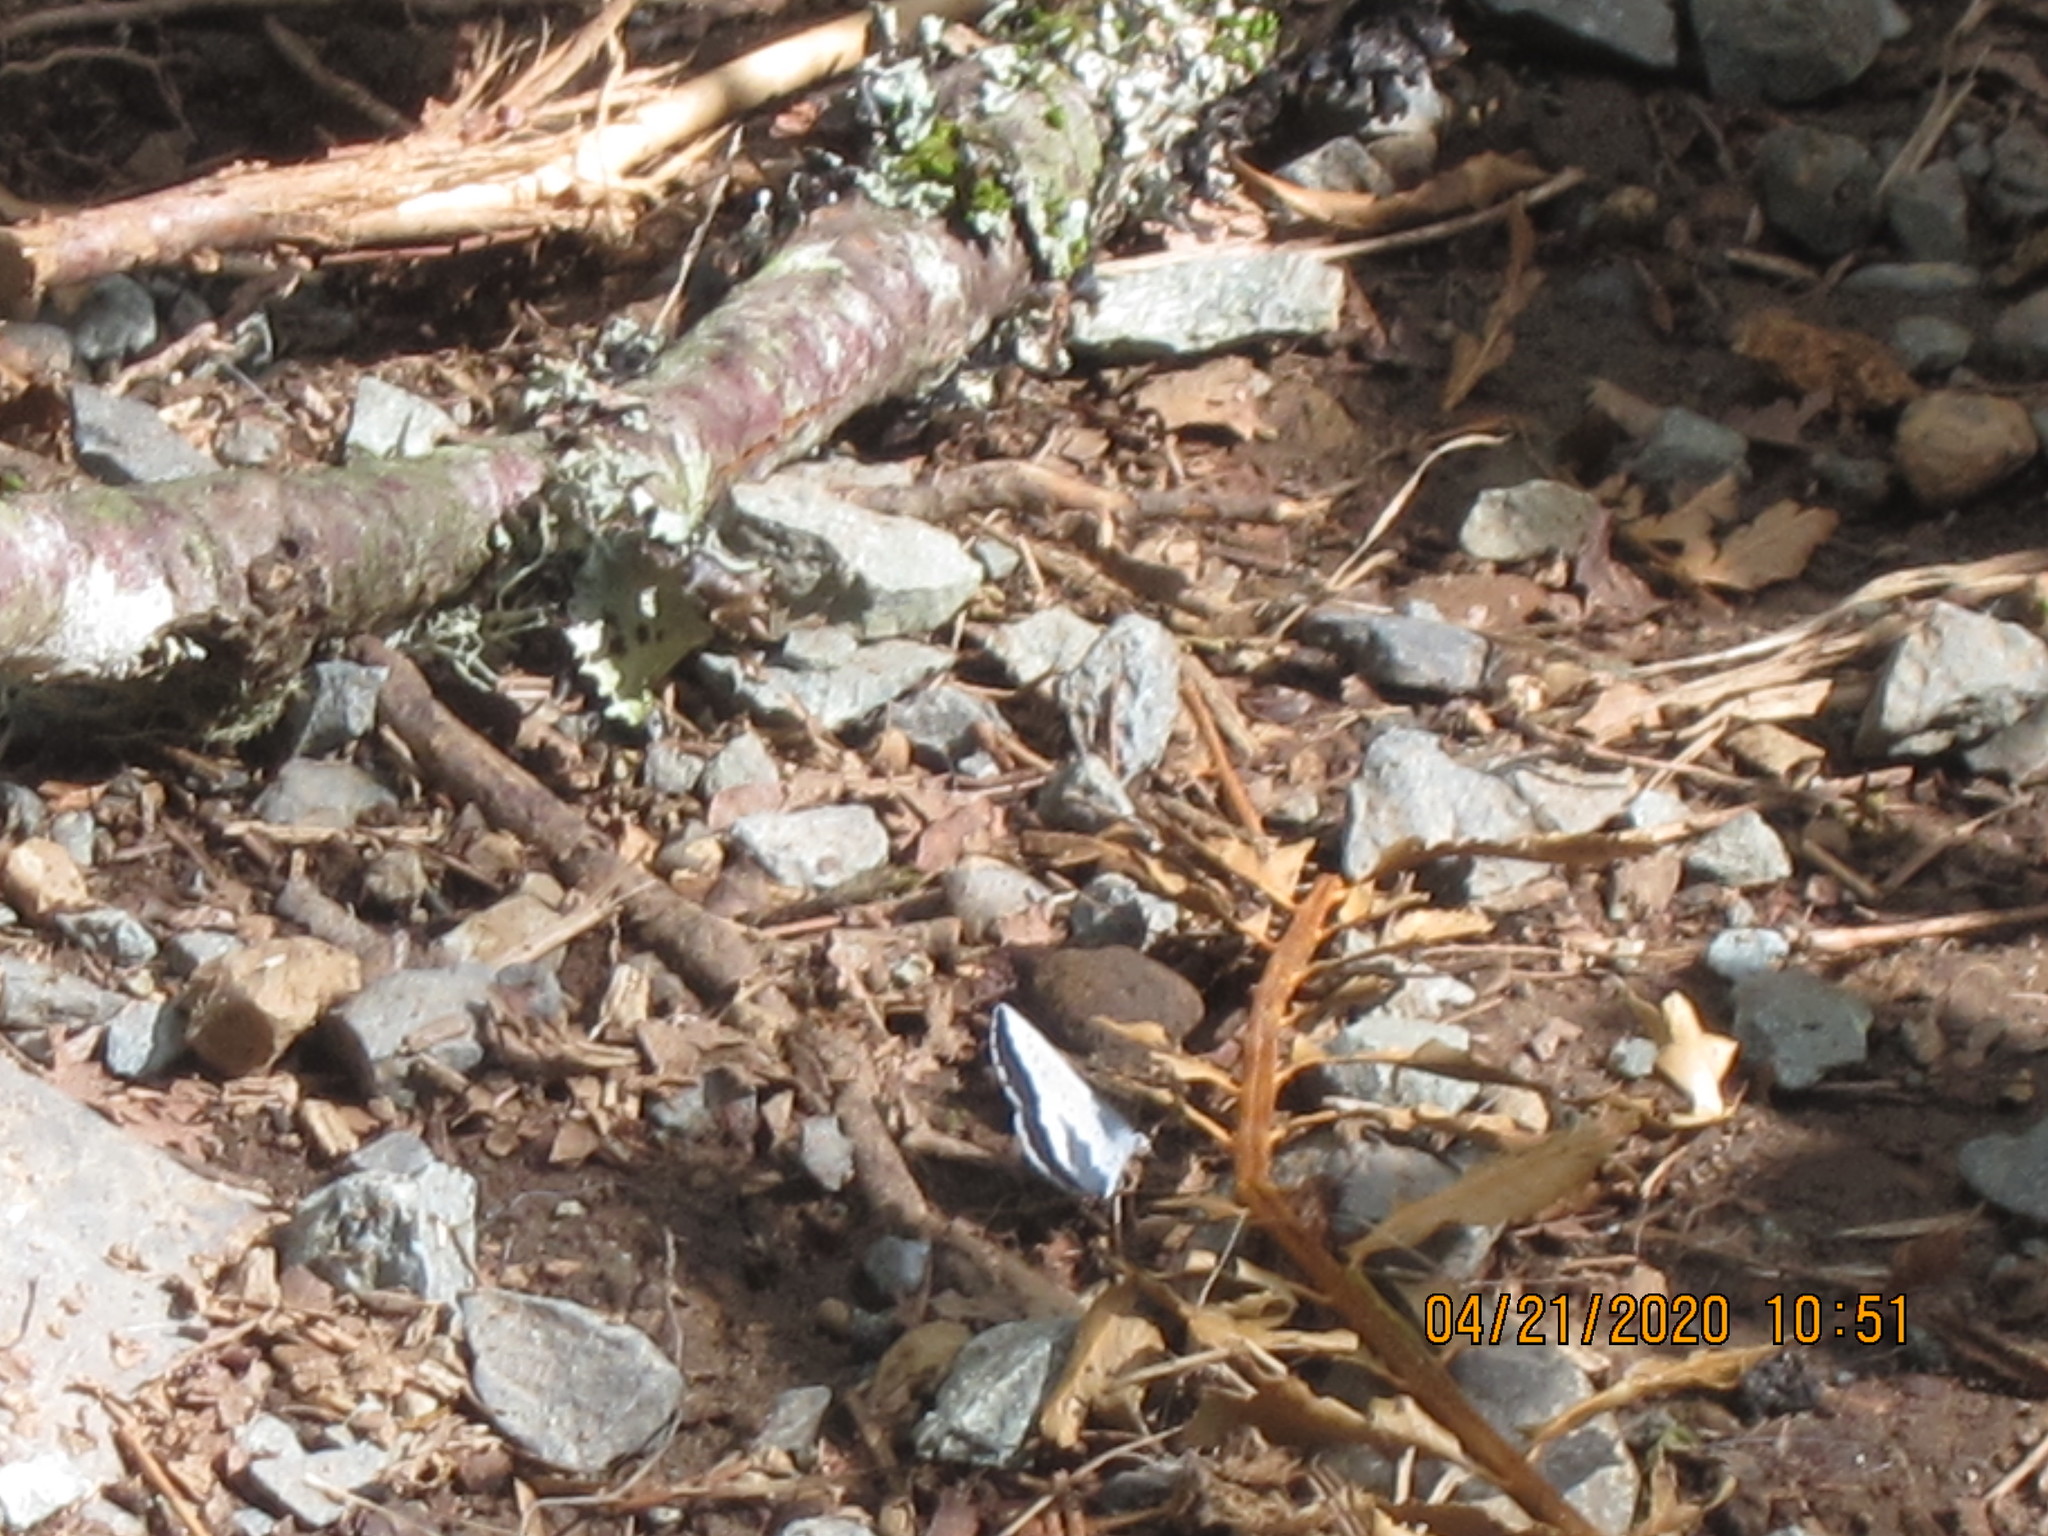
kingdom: Animalia
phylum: Arthropoda
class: Insecta
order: Lepidoptera
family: Lycaenidae
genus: Celastrina
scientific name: Celastrina ladon
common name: Spring azure
